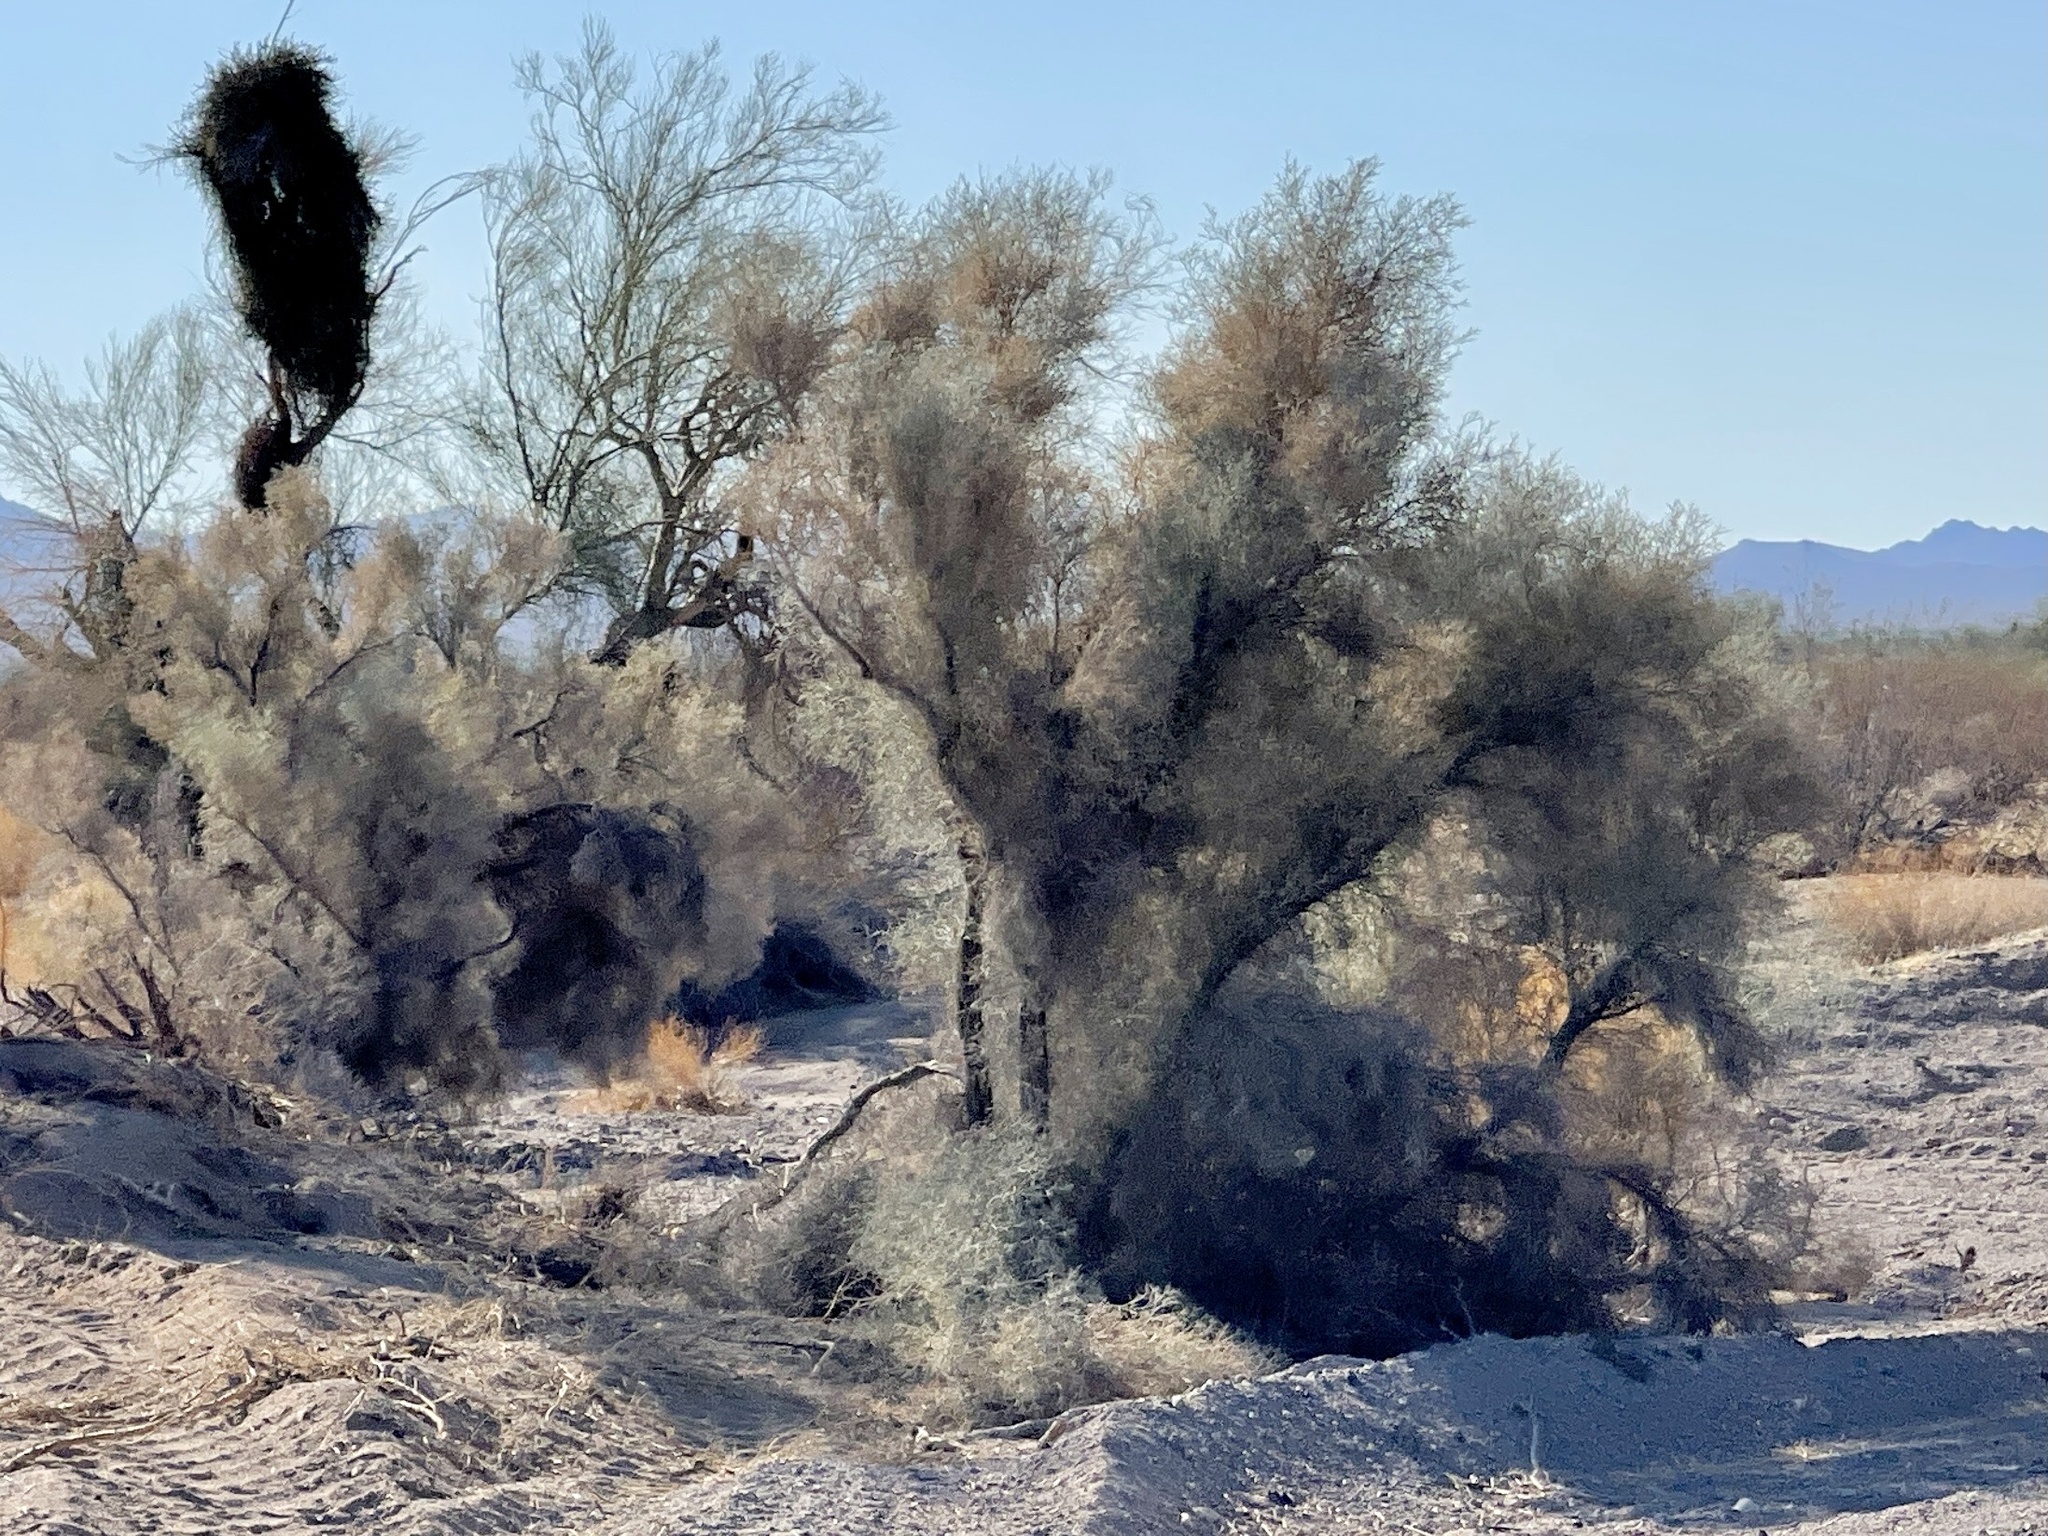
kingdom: Plantae
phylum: Tracheophyta
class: Magnoliopsida
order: Fabales
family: Fabaceae
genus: Psorothamnus
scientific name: Psorothamnus spinosus
